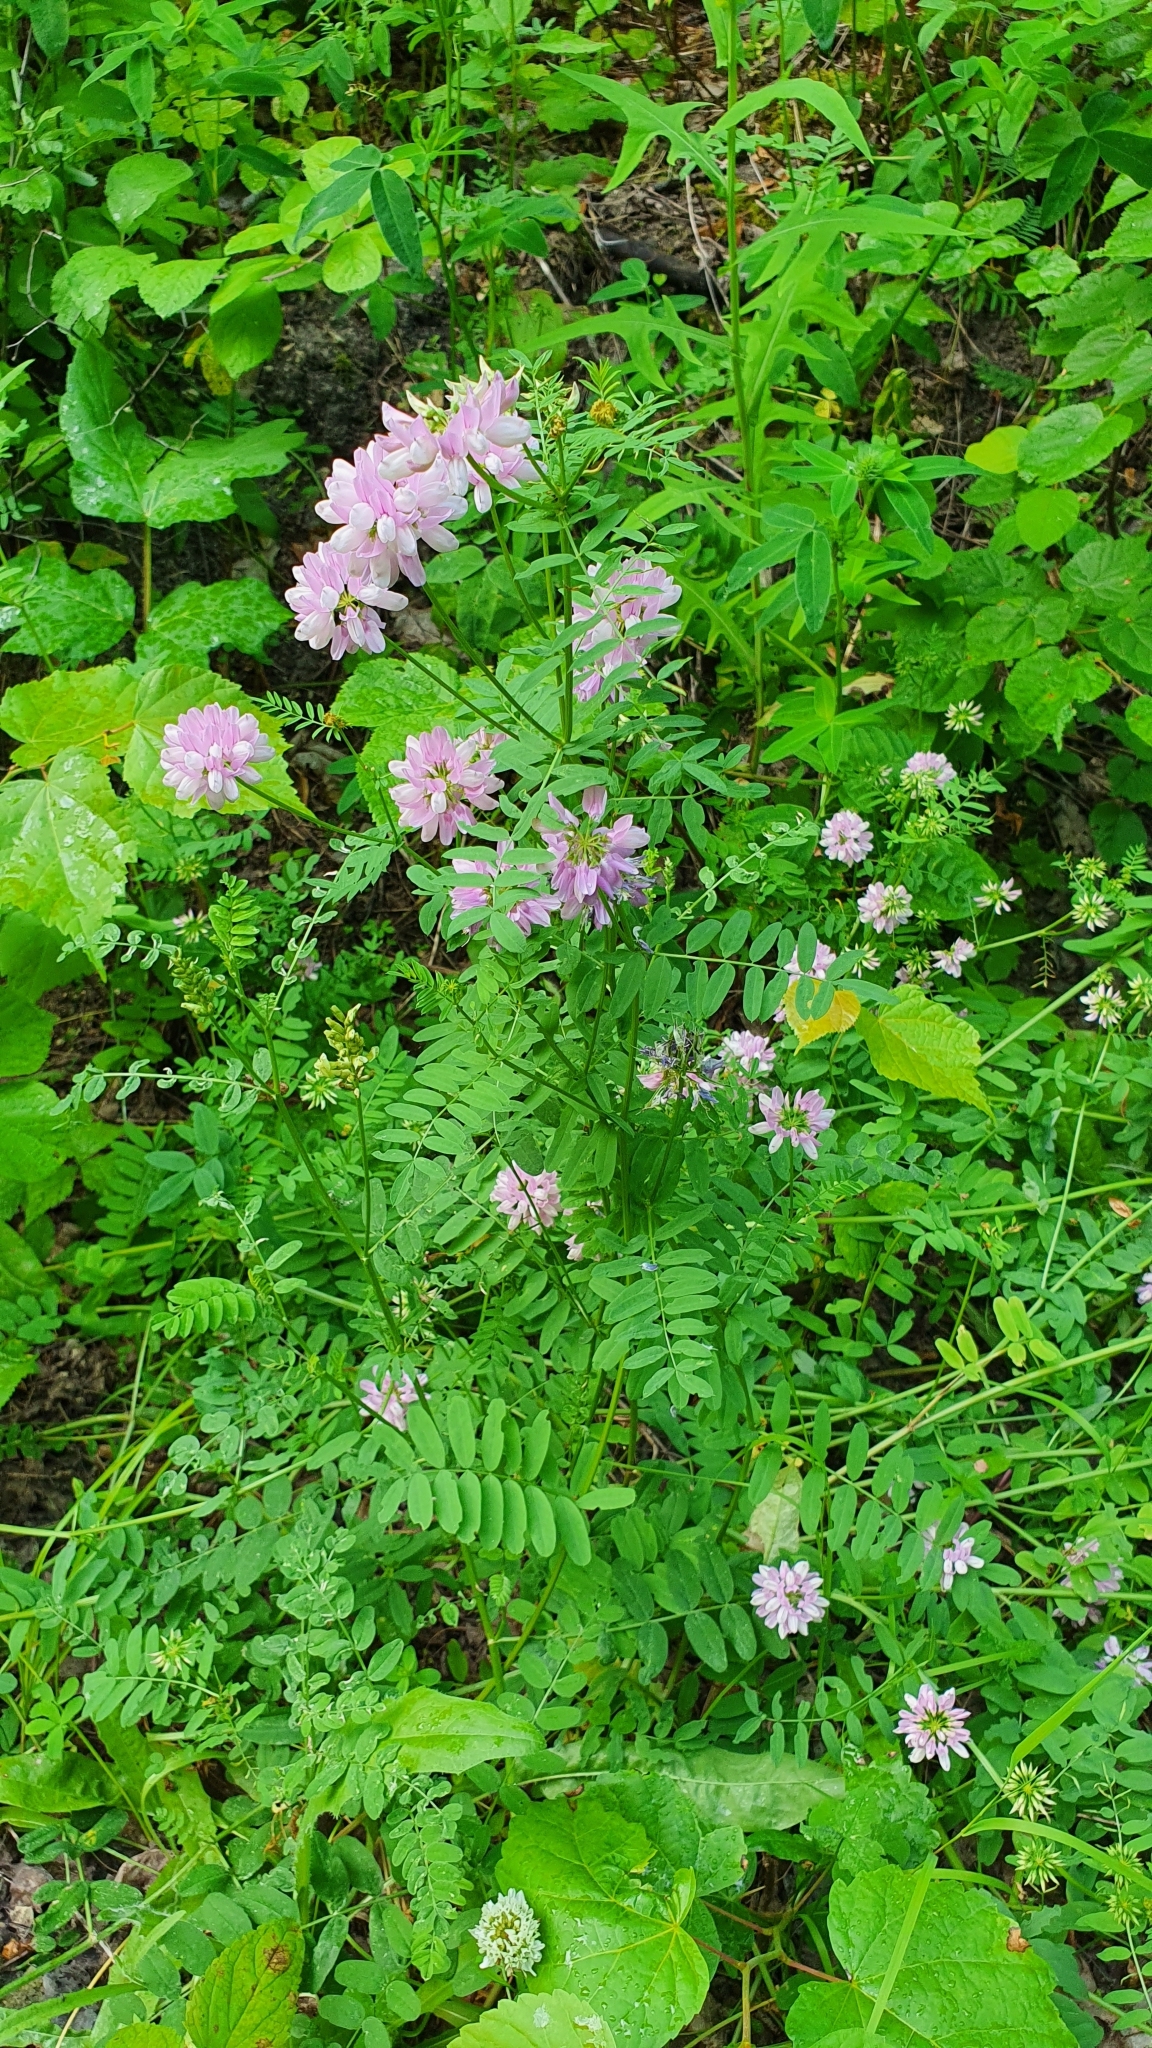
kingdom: Plantae
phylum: Tracheophyta
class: Magnoliopsida
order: Fabales
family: Fabaceae
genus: Coronilla
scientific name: Coronilla varia
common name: Crownvetch
